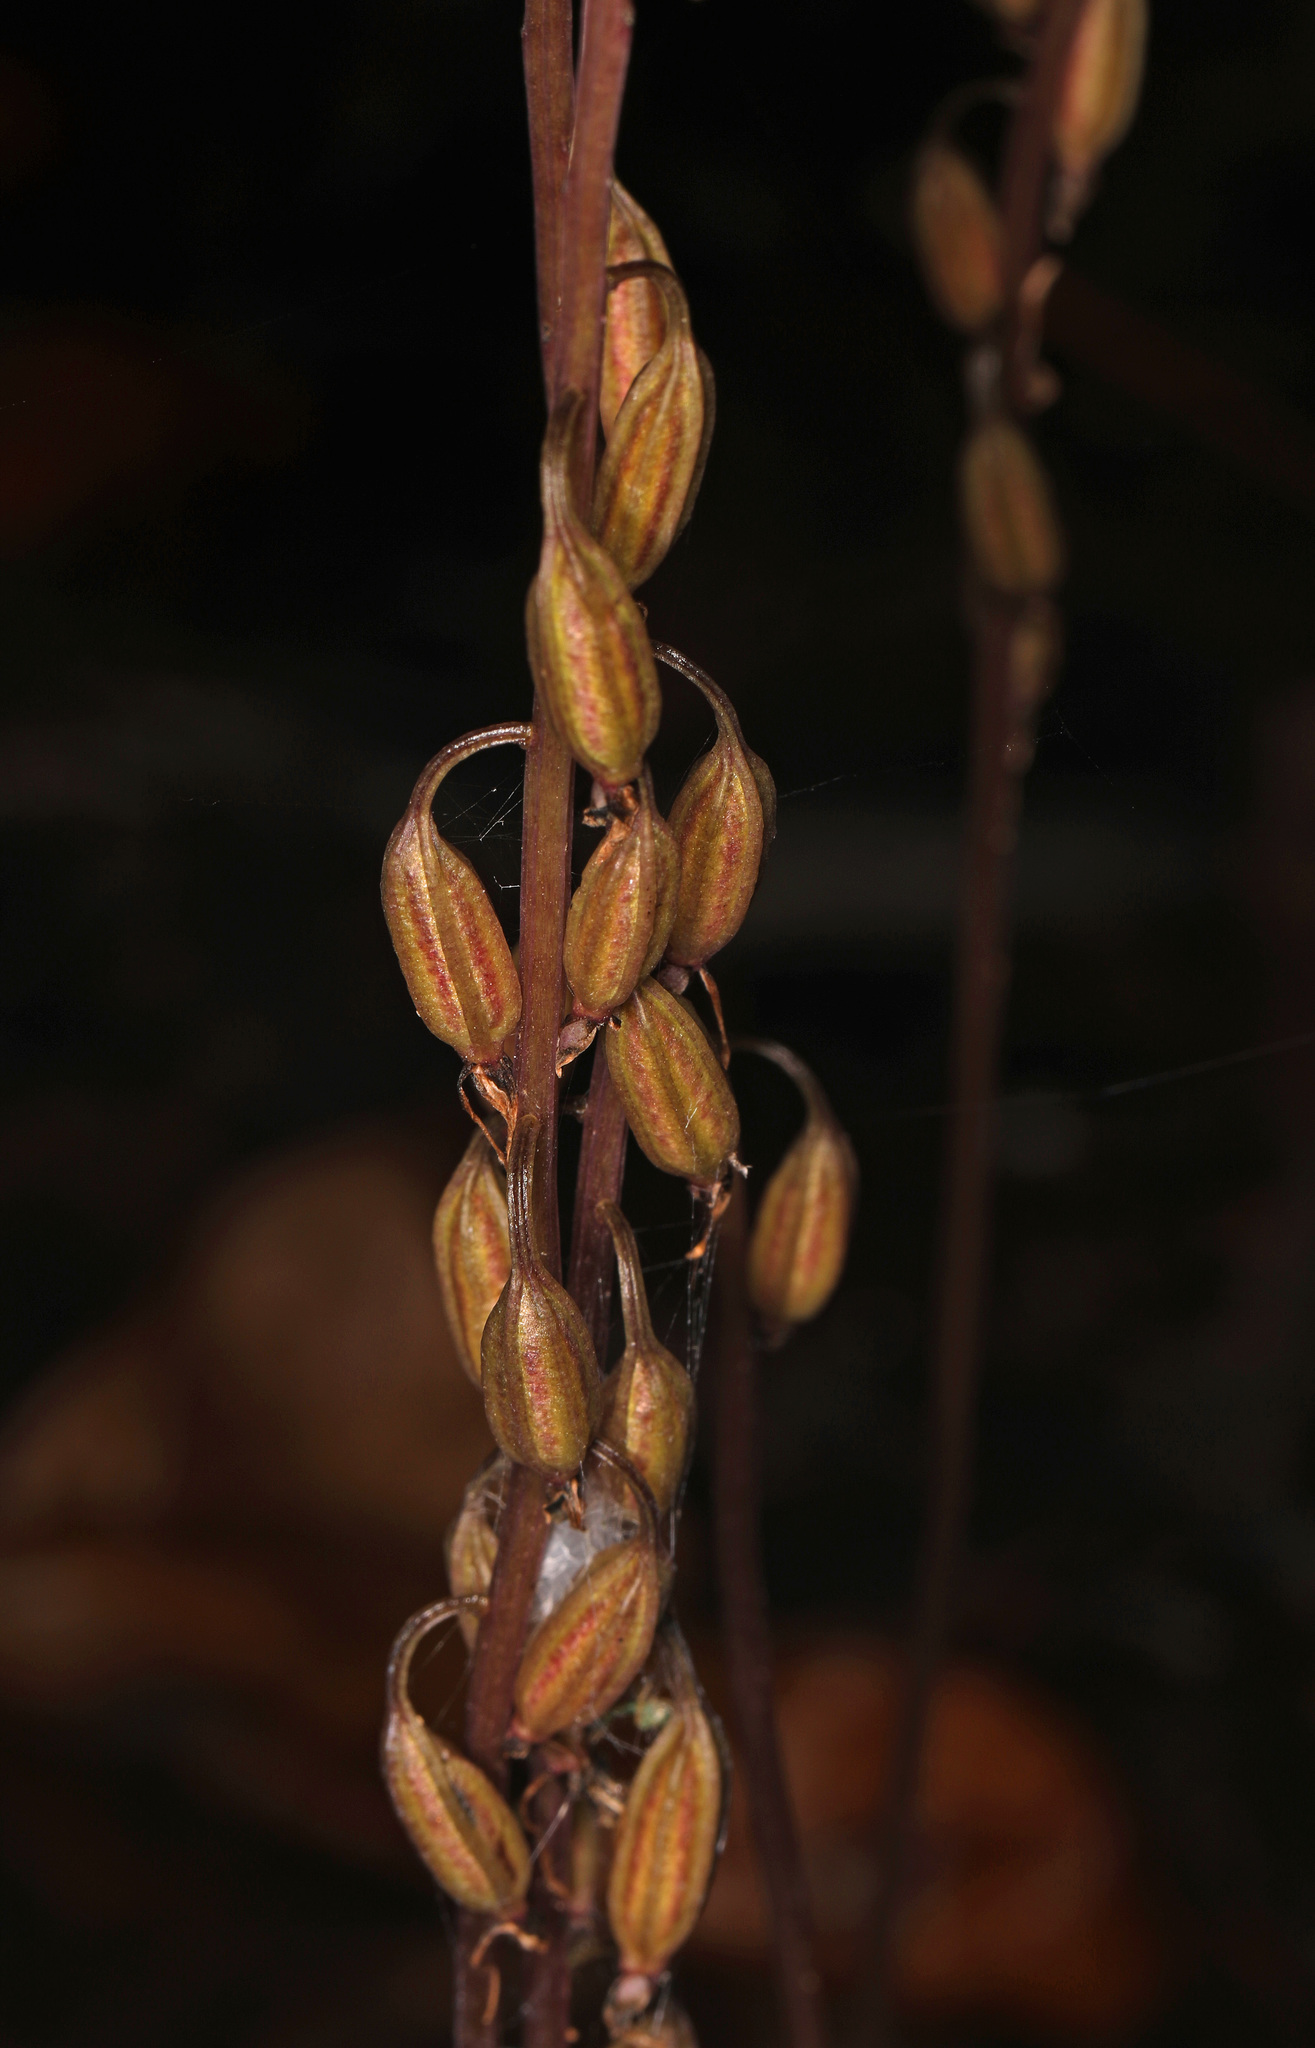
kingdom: Plantae
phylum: Tracheophyta
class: Liliopsida
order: Asparagales
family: Orchidaceae
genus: Tipularia
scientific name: Tipularia discolor
